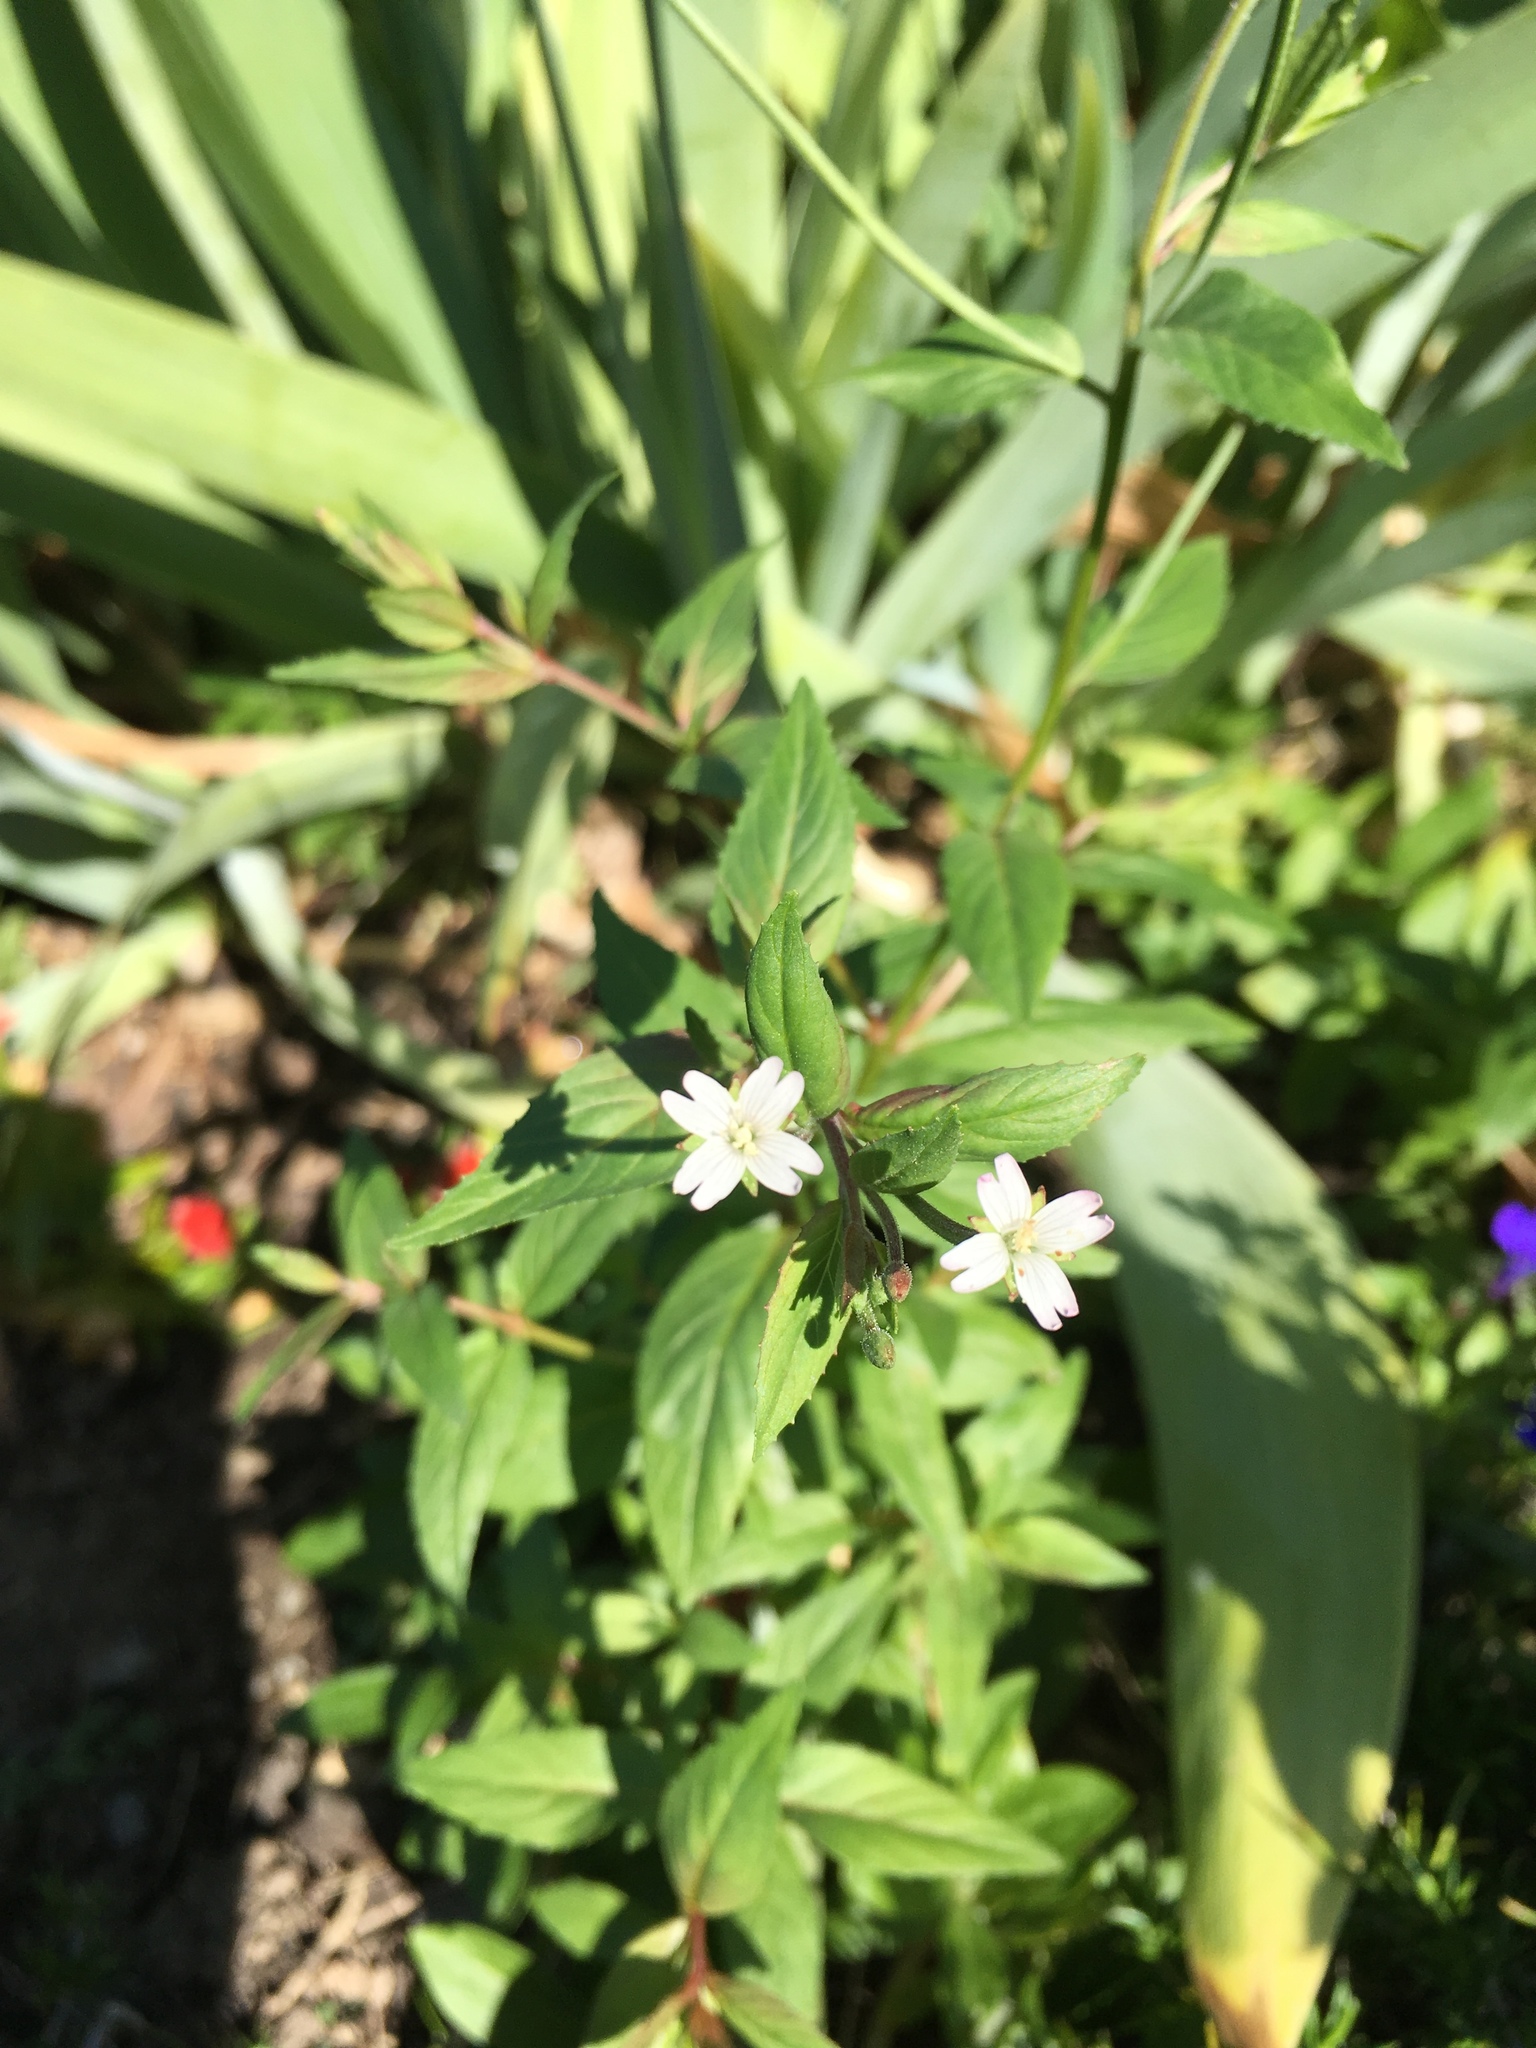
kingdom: Plantae
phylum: Tracheophyta
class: Magnoliopsida
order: Myrtales
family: Onagraceae
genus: Epilobium
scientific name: Epilobium ciliatum
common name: American willowherb
